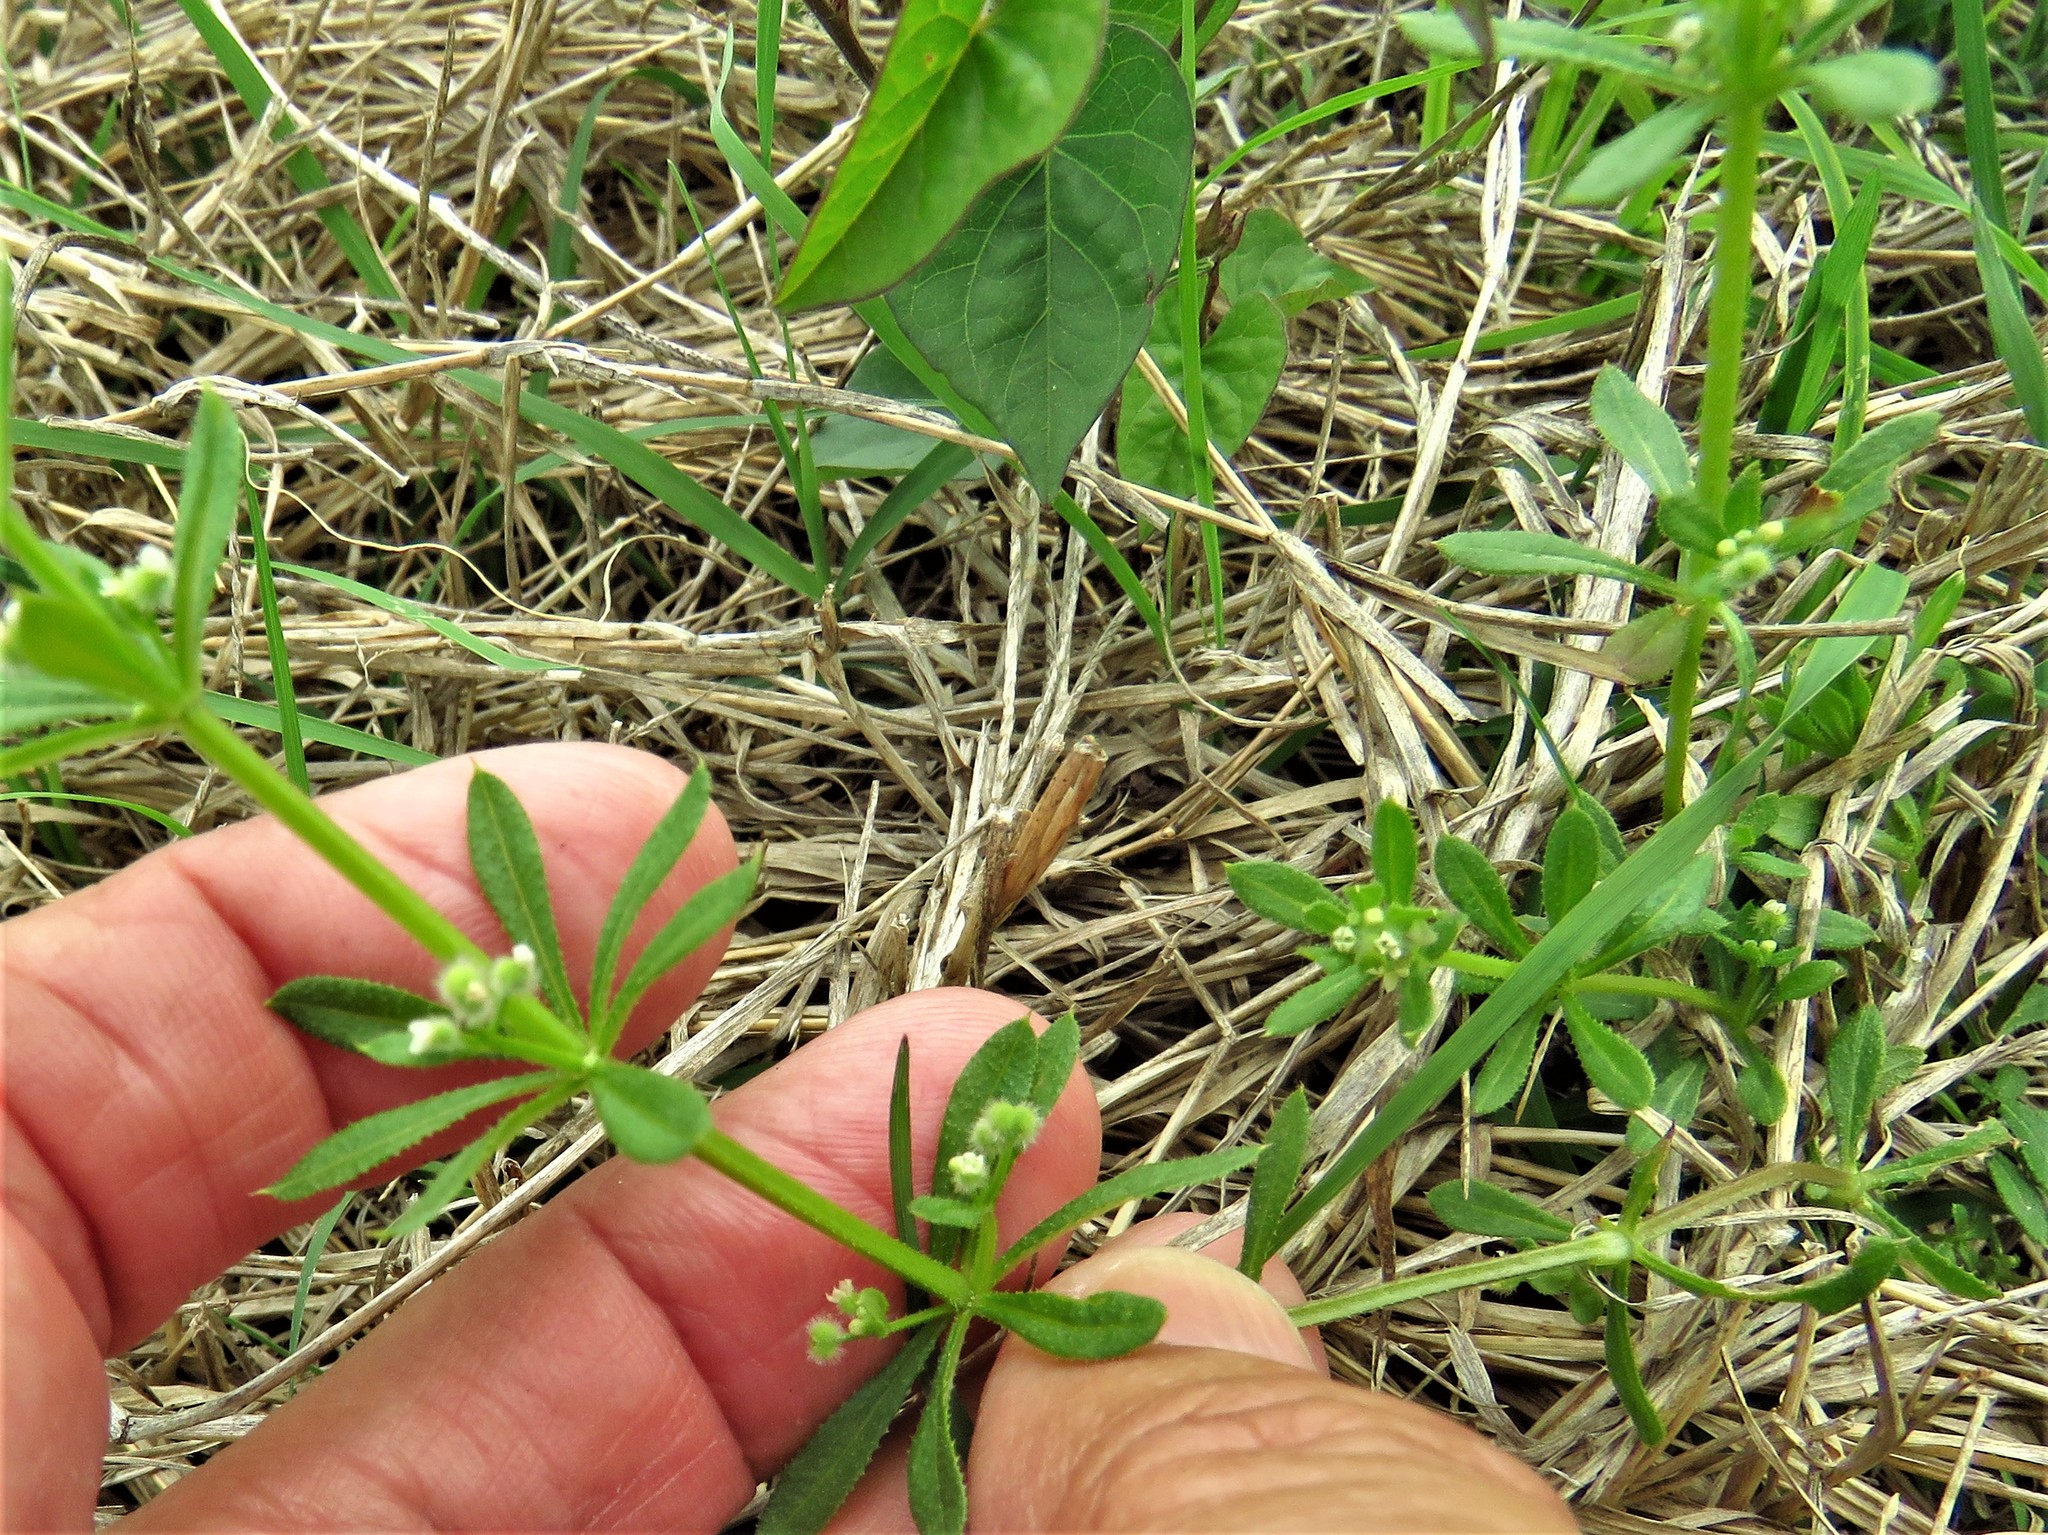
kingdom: Plantae
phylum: Tracheophyta
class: Magnoliopsida
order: Gentianales
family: Rubiaceae
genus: Galium
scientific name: Galium aparine
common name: Cleavers
